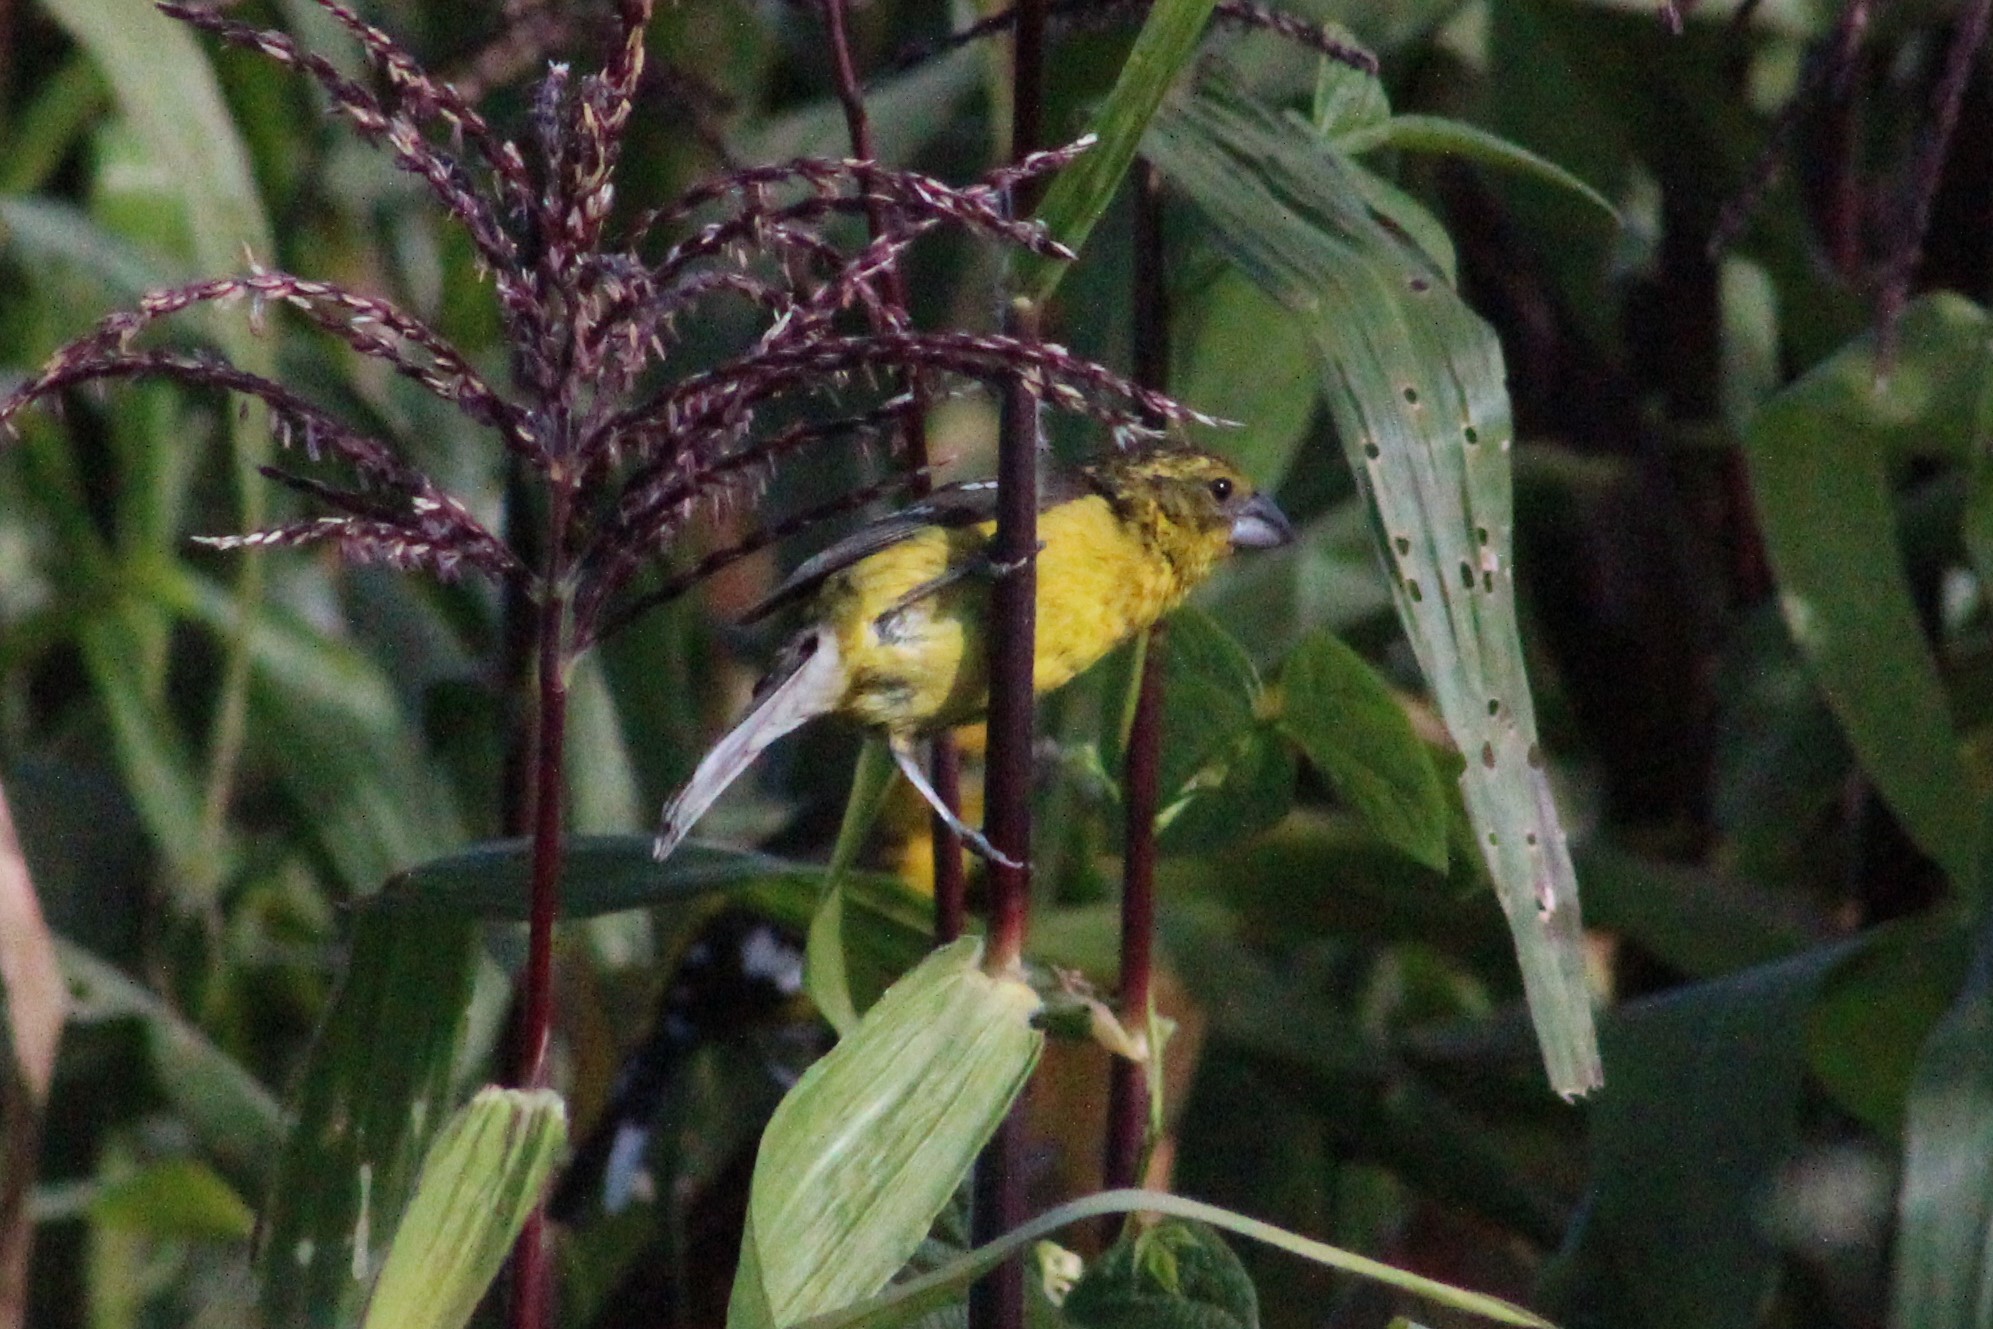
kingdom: Animalia
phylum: Chordata
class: Aves
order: Passeriformes
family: Cardinalidae
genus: Pheucticus
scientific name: Pheucticus chrysogaster
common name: Golden grosbeak
